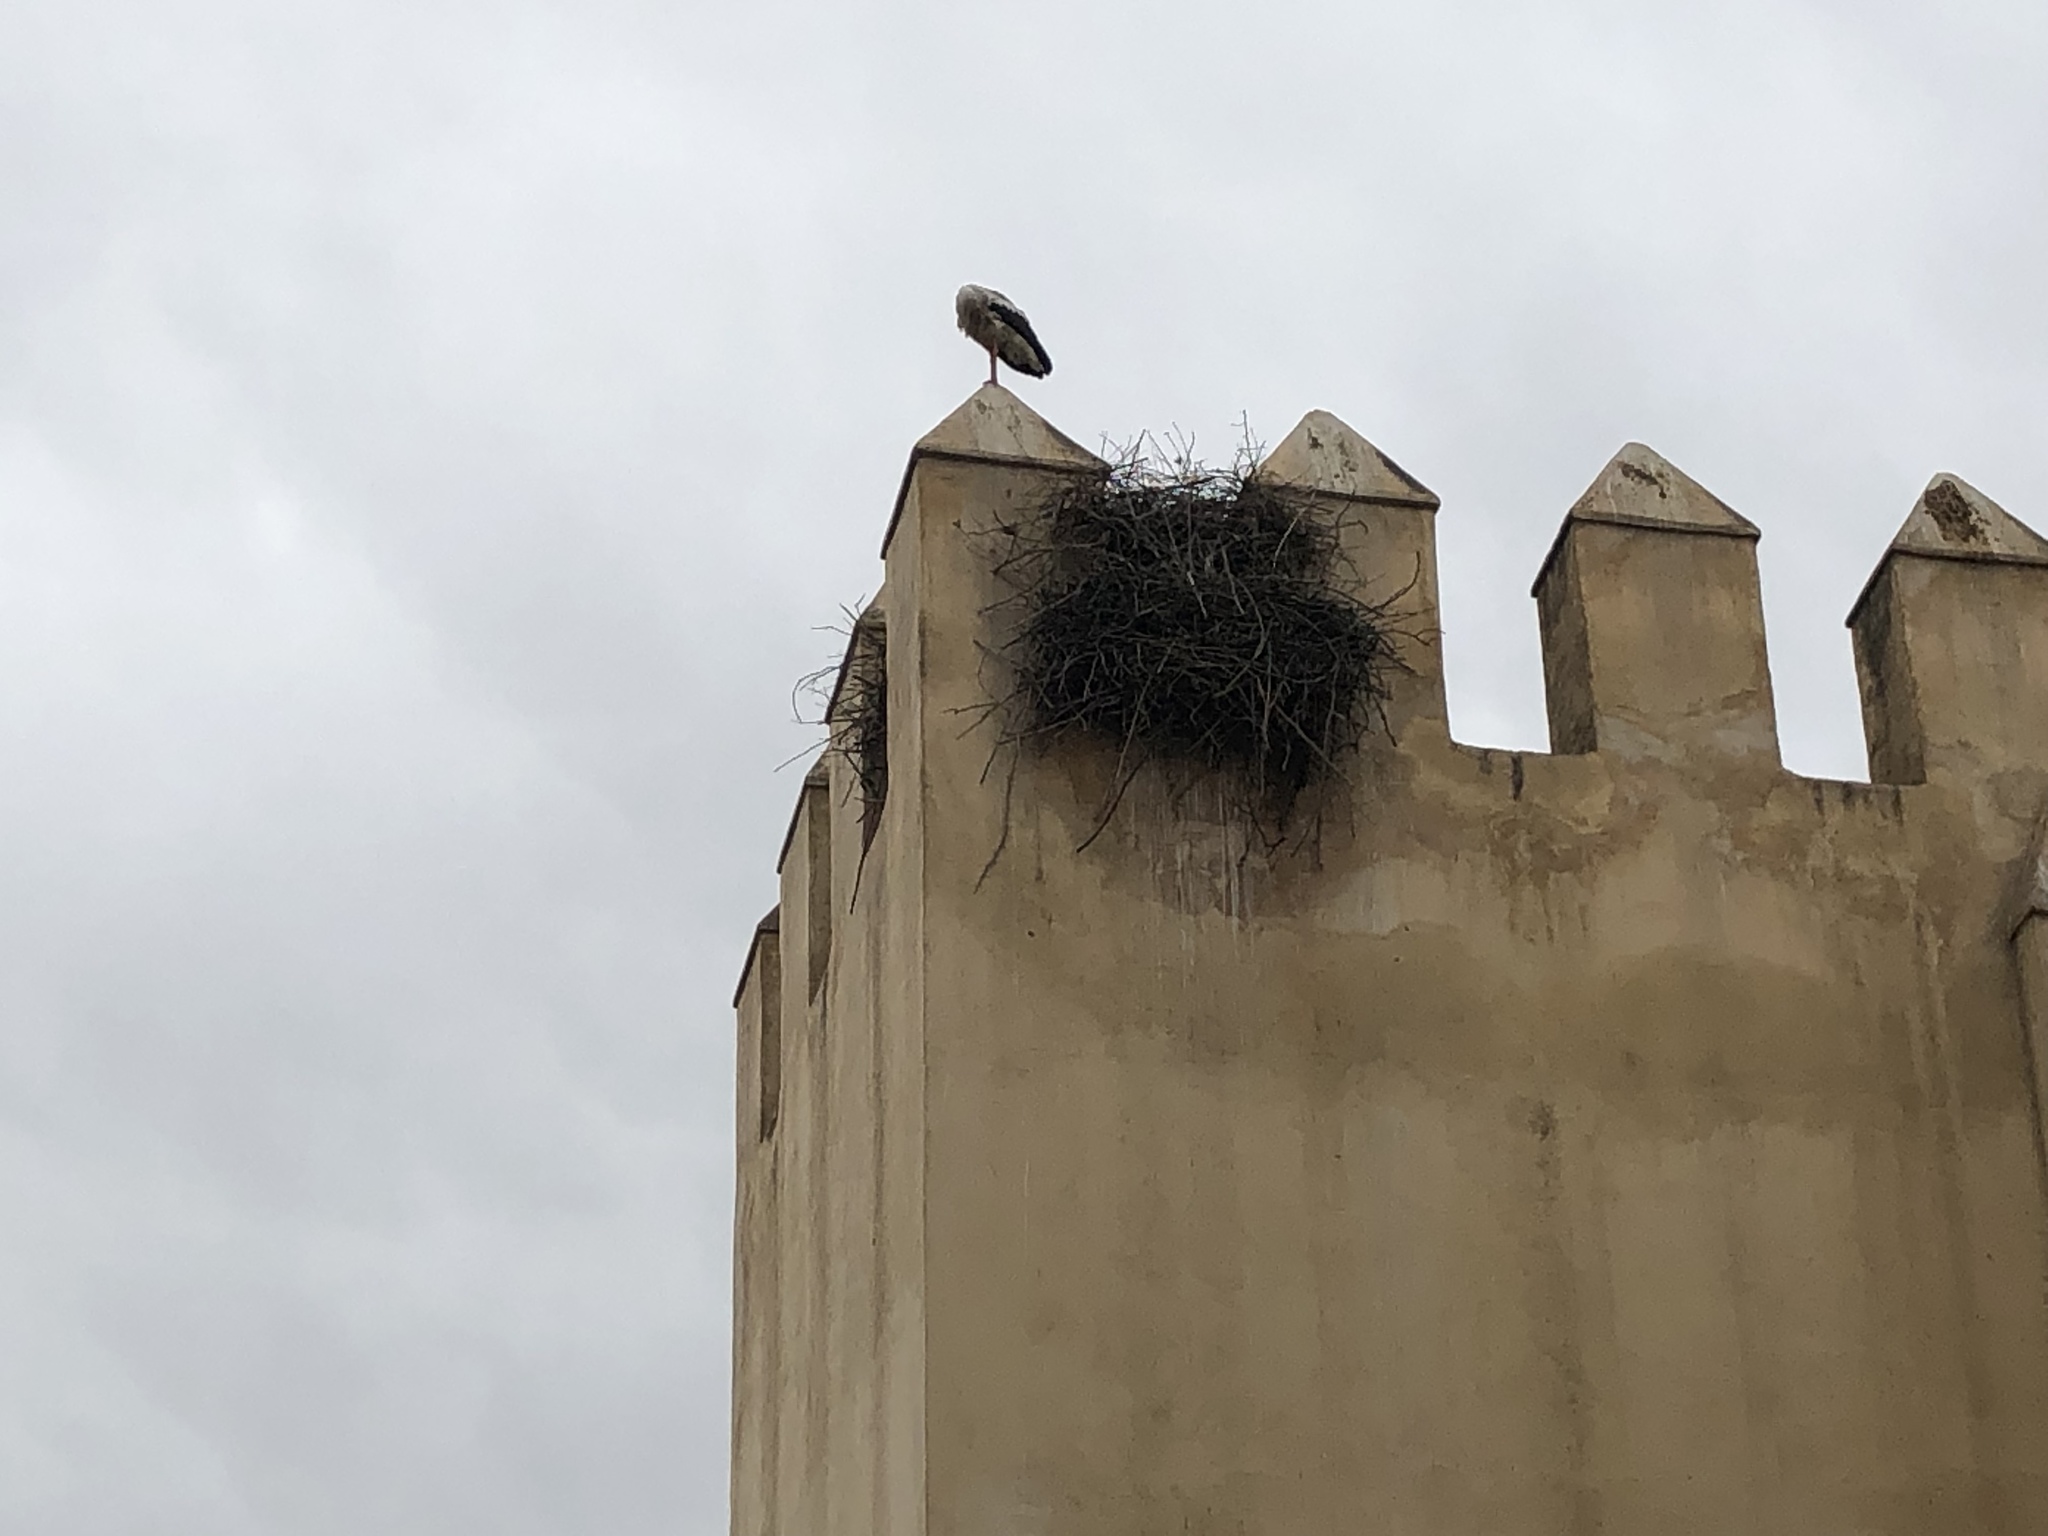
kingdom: Animalia
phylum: Chordata
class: Aves
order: Ciconiiformes
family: Ciconiidae
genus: Ciconia
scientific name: Ciconia ciconia
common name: White stork
